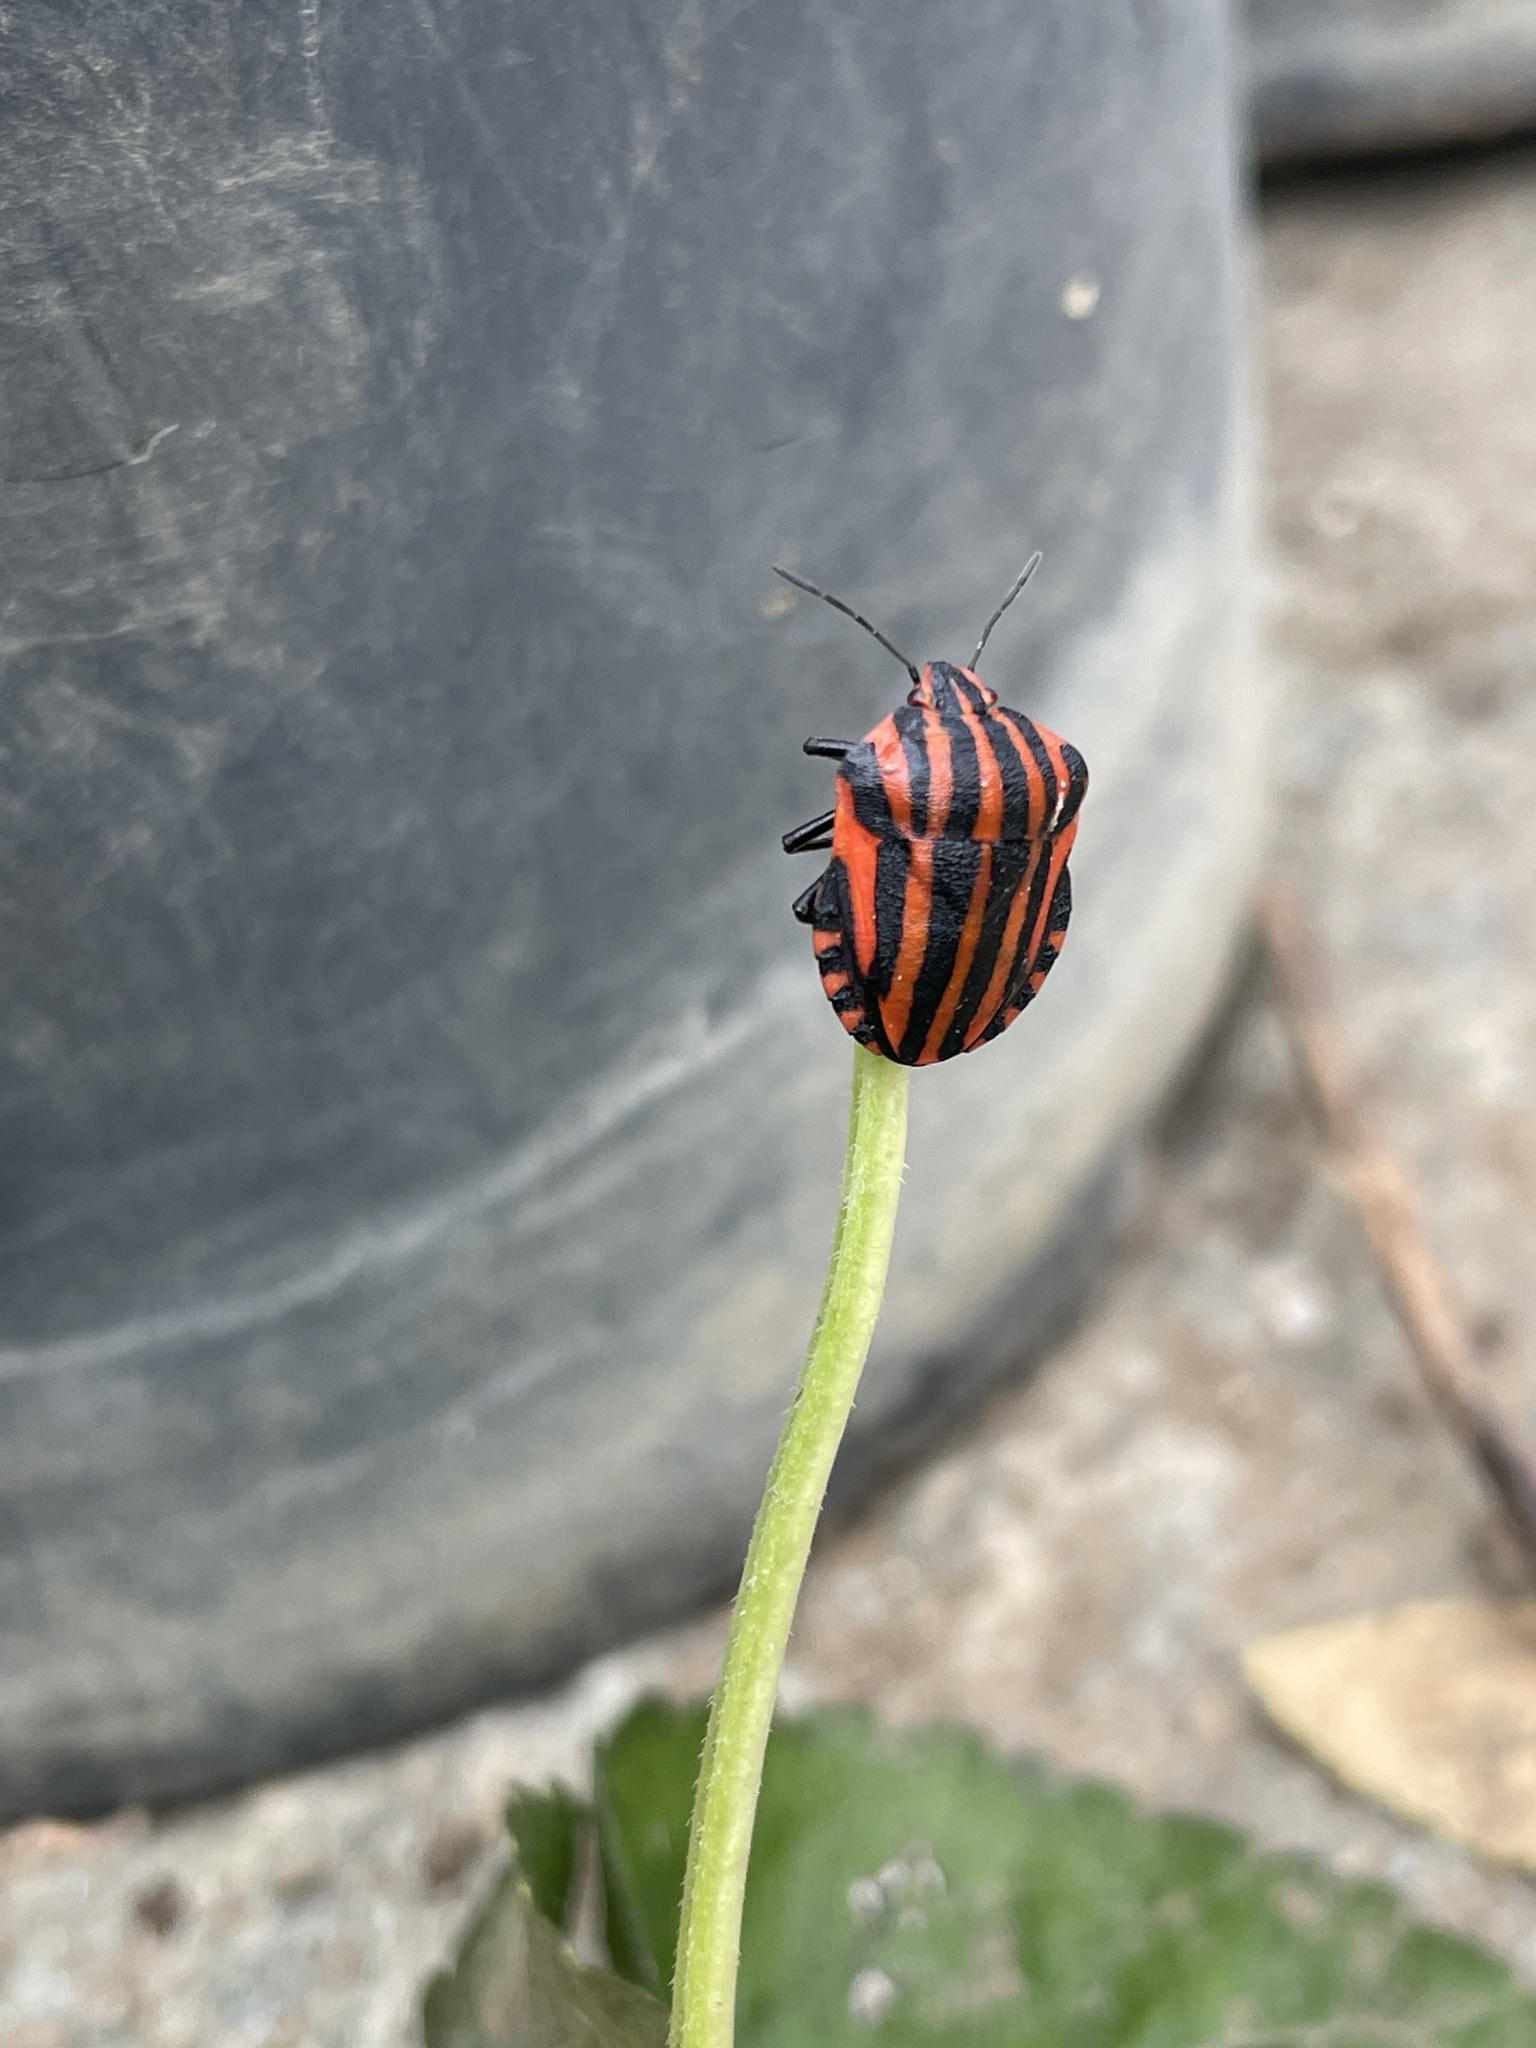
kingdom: Animalia
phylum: Arthropoda
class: Insecta
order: Hemiptera
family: Pentatomidae
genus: Graphosoma
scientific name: Graphosoma italicum
